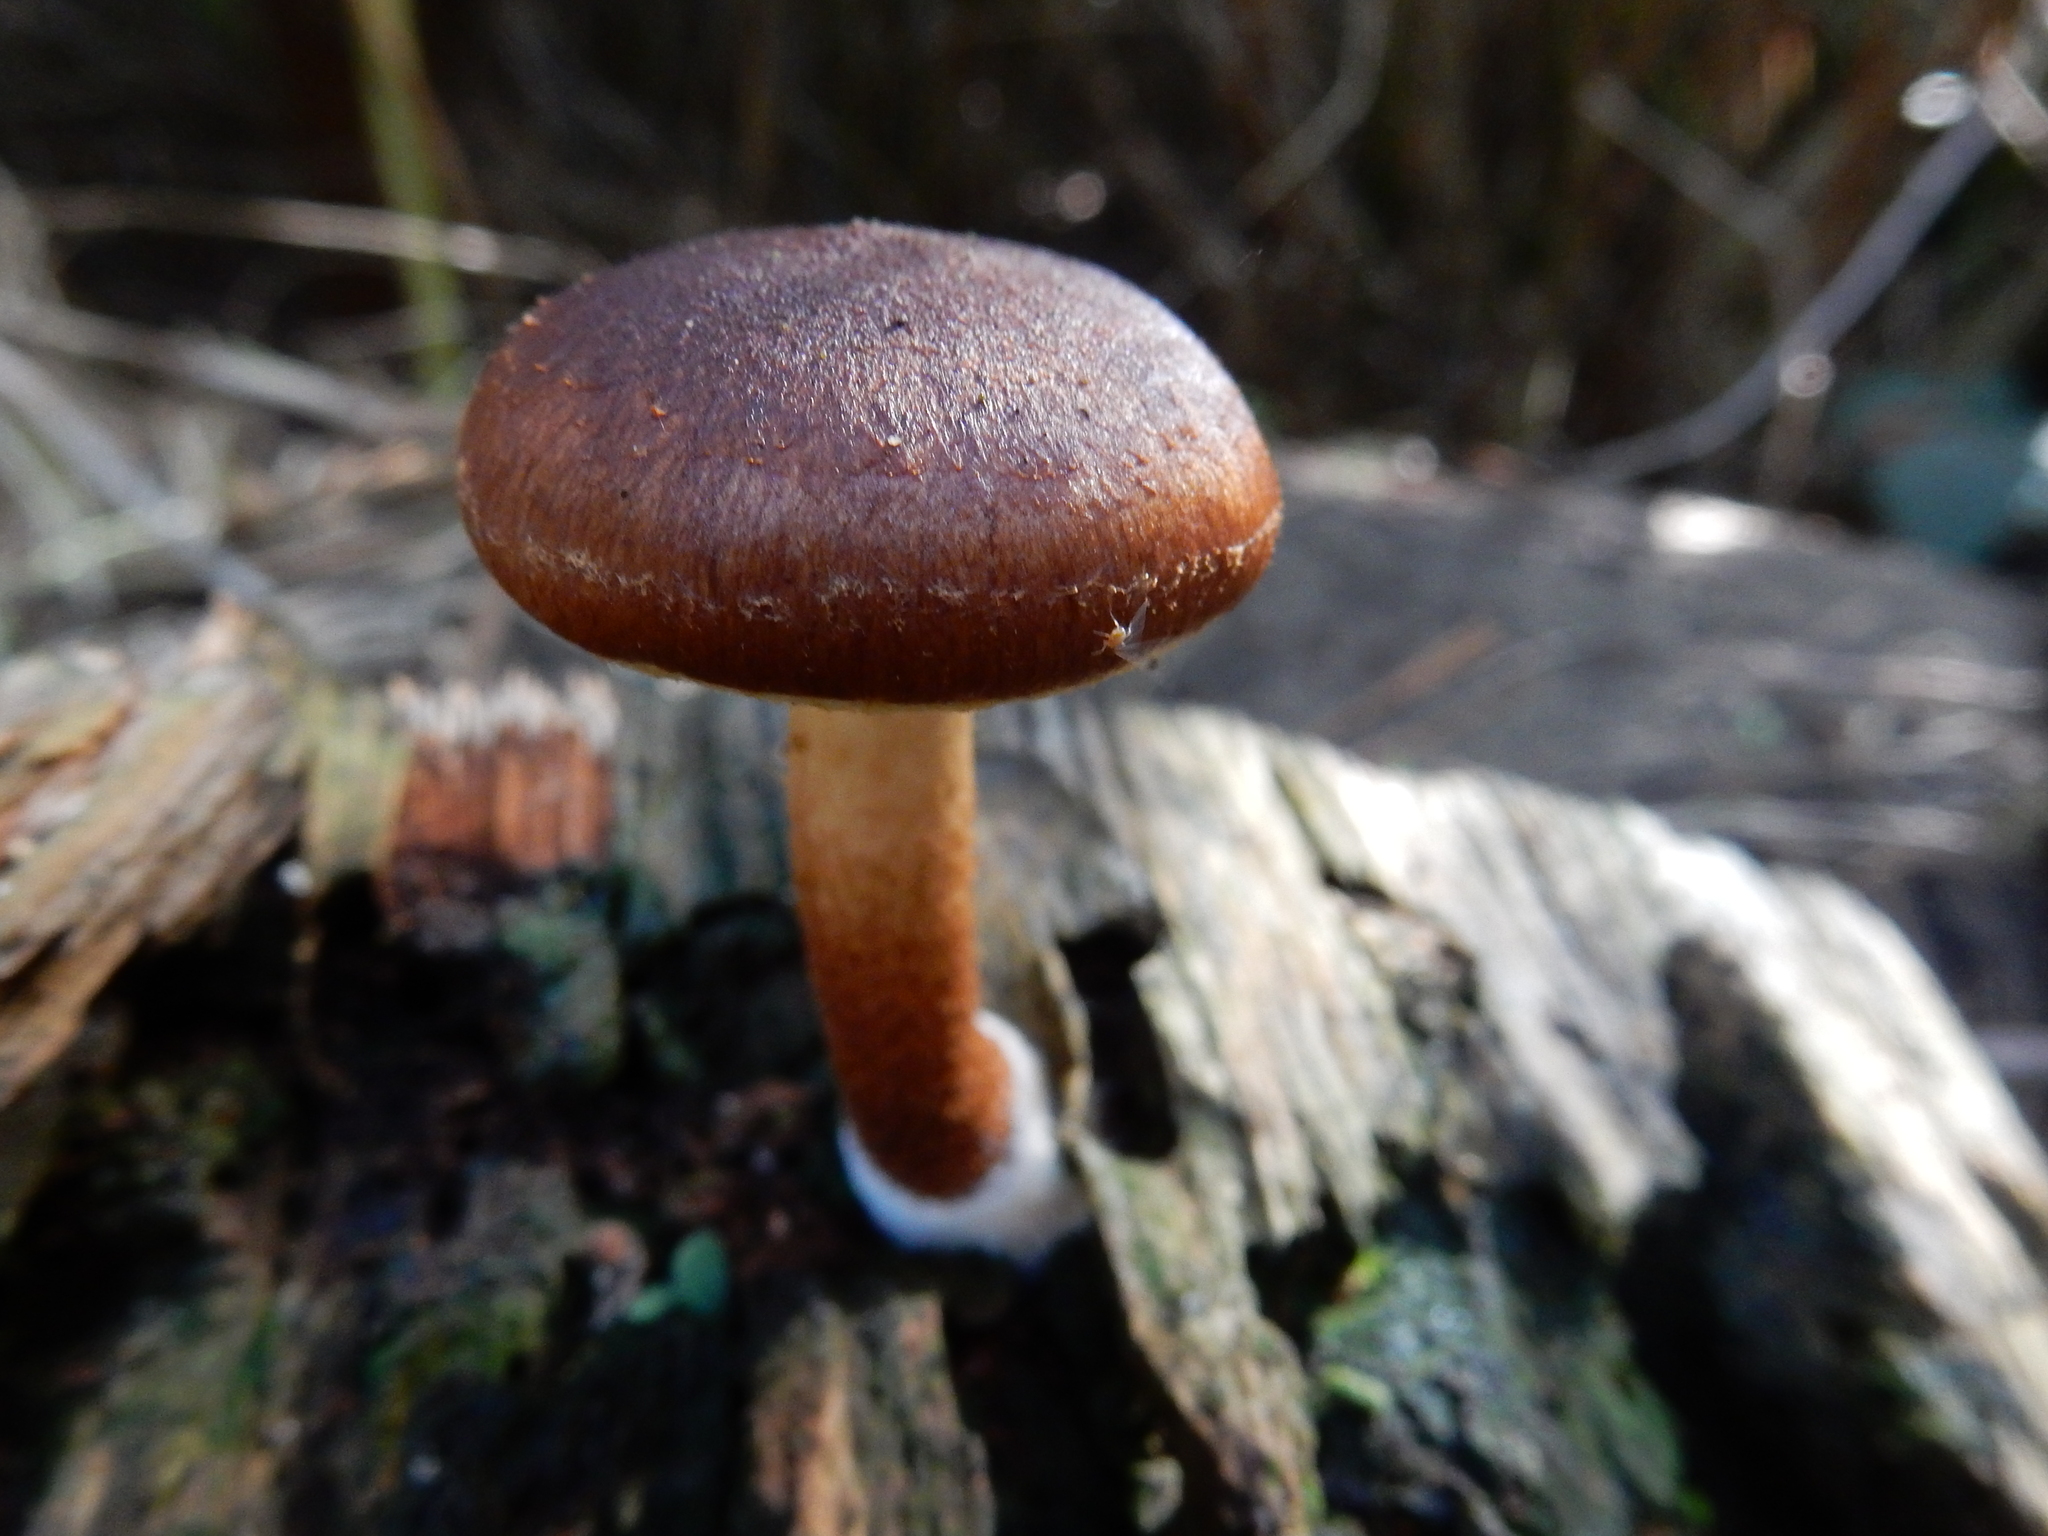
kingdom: Fungi
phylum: Basidiomycota
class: Agaricomycetes
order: Agaricales
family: Strophariaceae
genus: Pholiota
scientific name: Pholiota multicingulata
